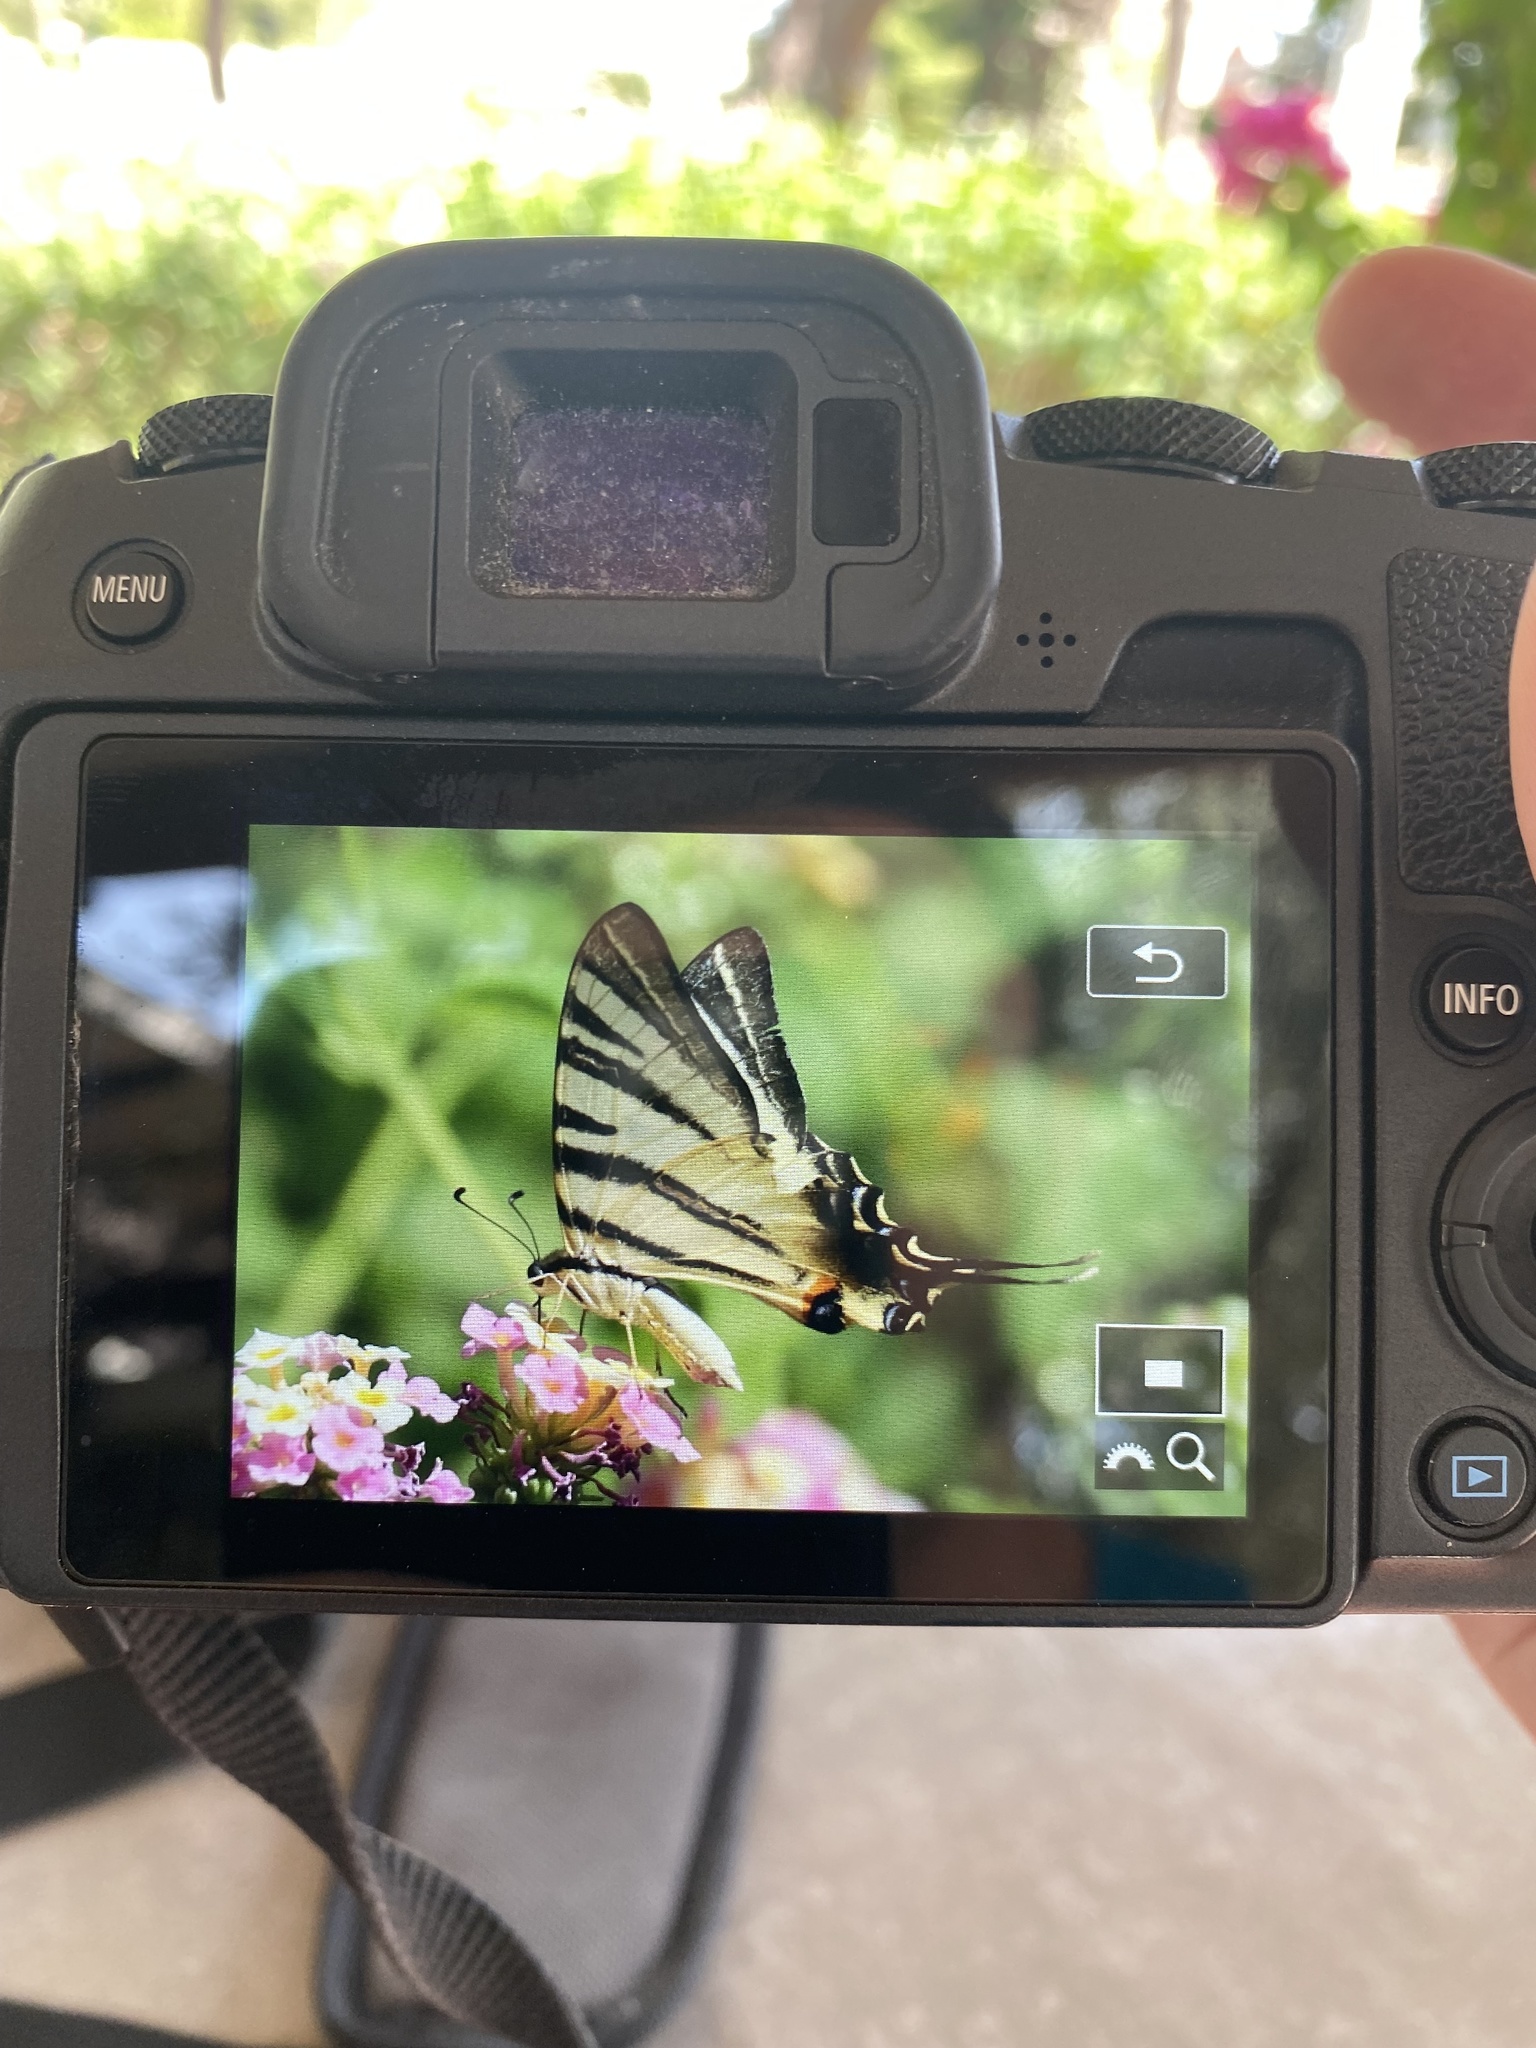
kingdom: Animalia
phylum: Arthropoda
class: Insecta
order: Lepidoptera
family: Papilionidae
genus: Iphiclides
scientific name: Iphiclides podalirius
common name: Scarce swallowtail
